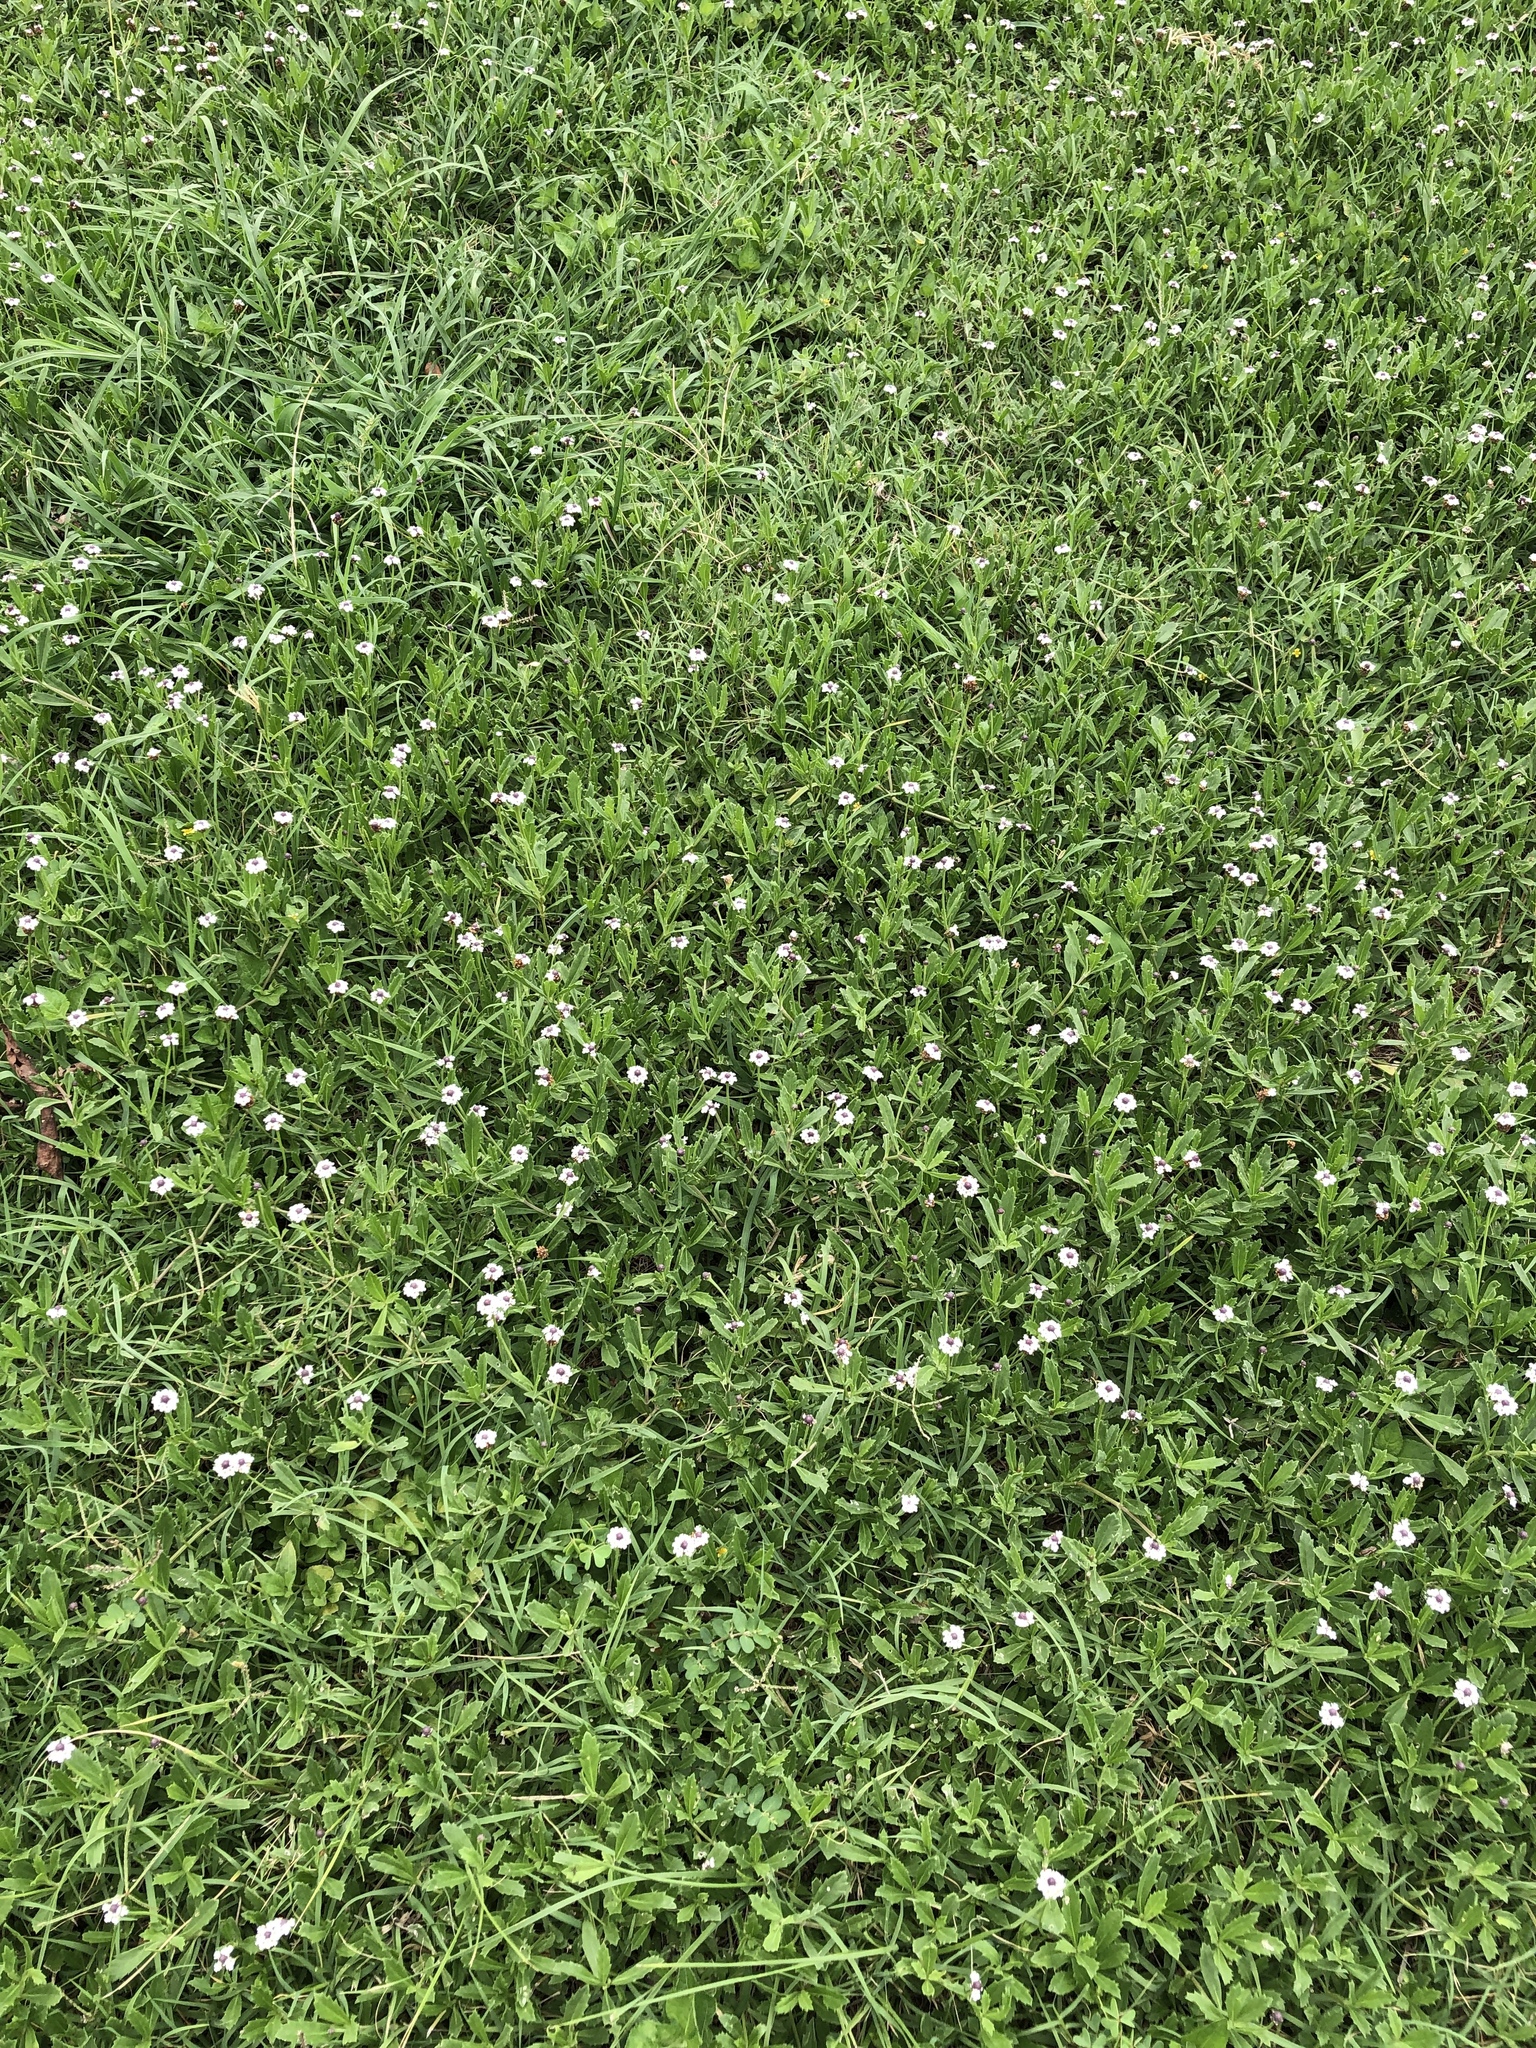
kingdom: Plantae
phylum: Tracheophyta
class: Magnoliopsida
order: Lamiales
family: Verbenaceae
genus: Phyla
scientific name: Phyla nodiflora
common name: Frogfruit
